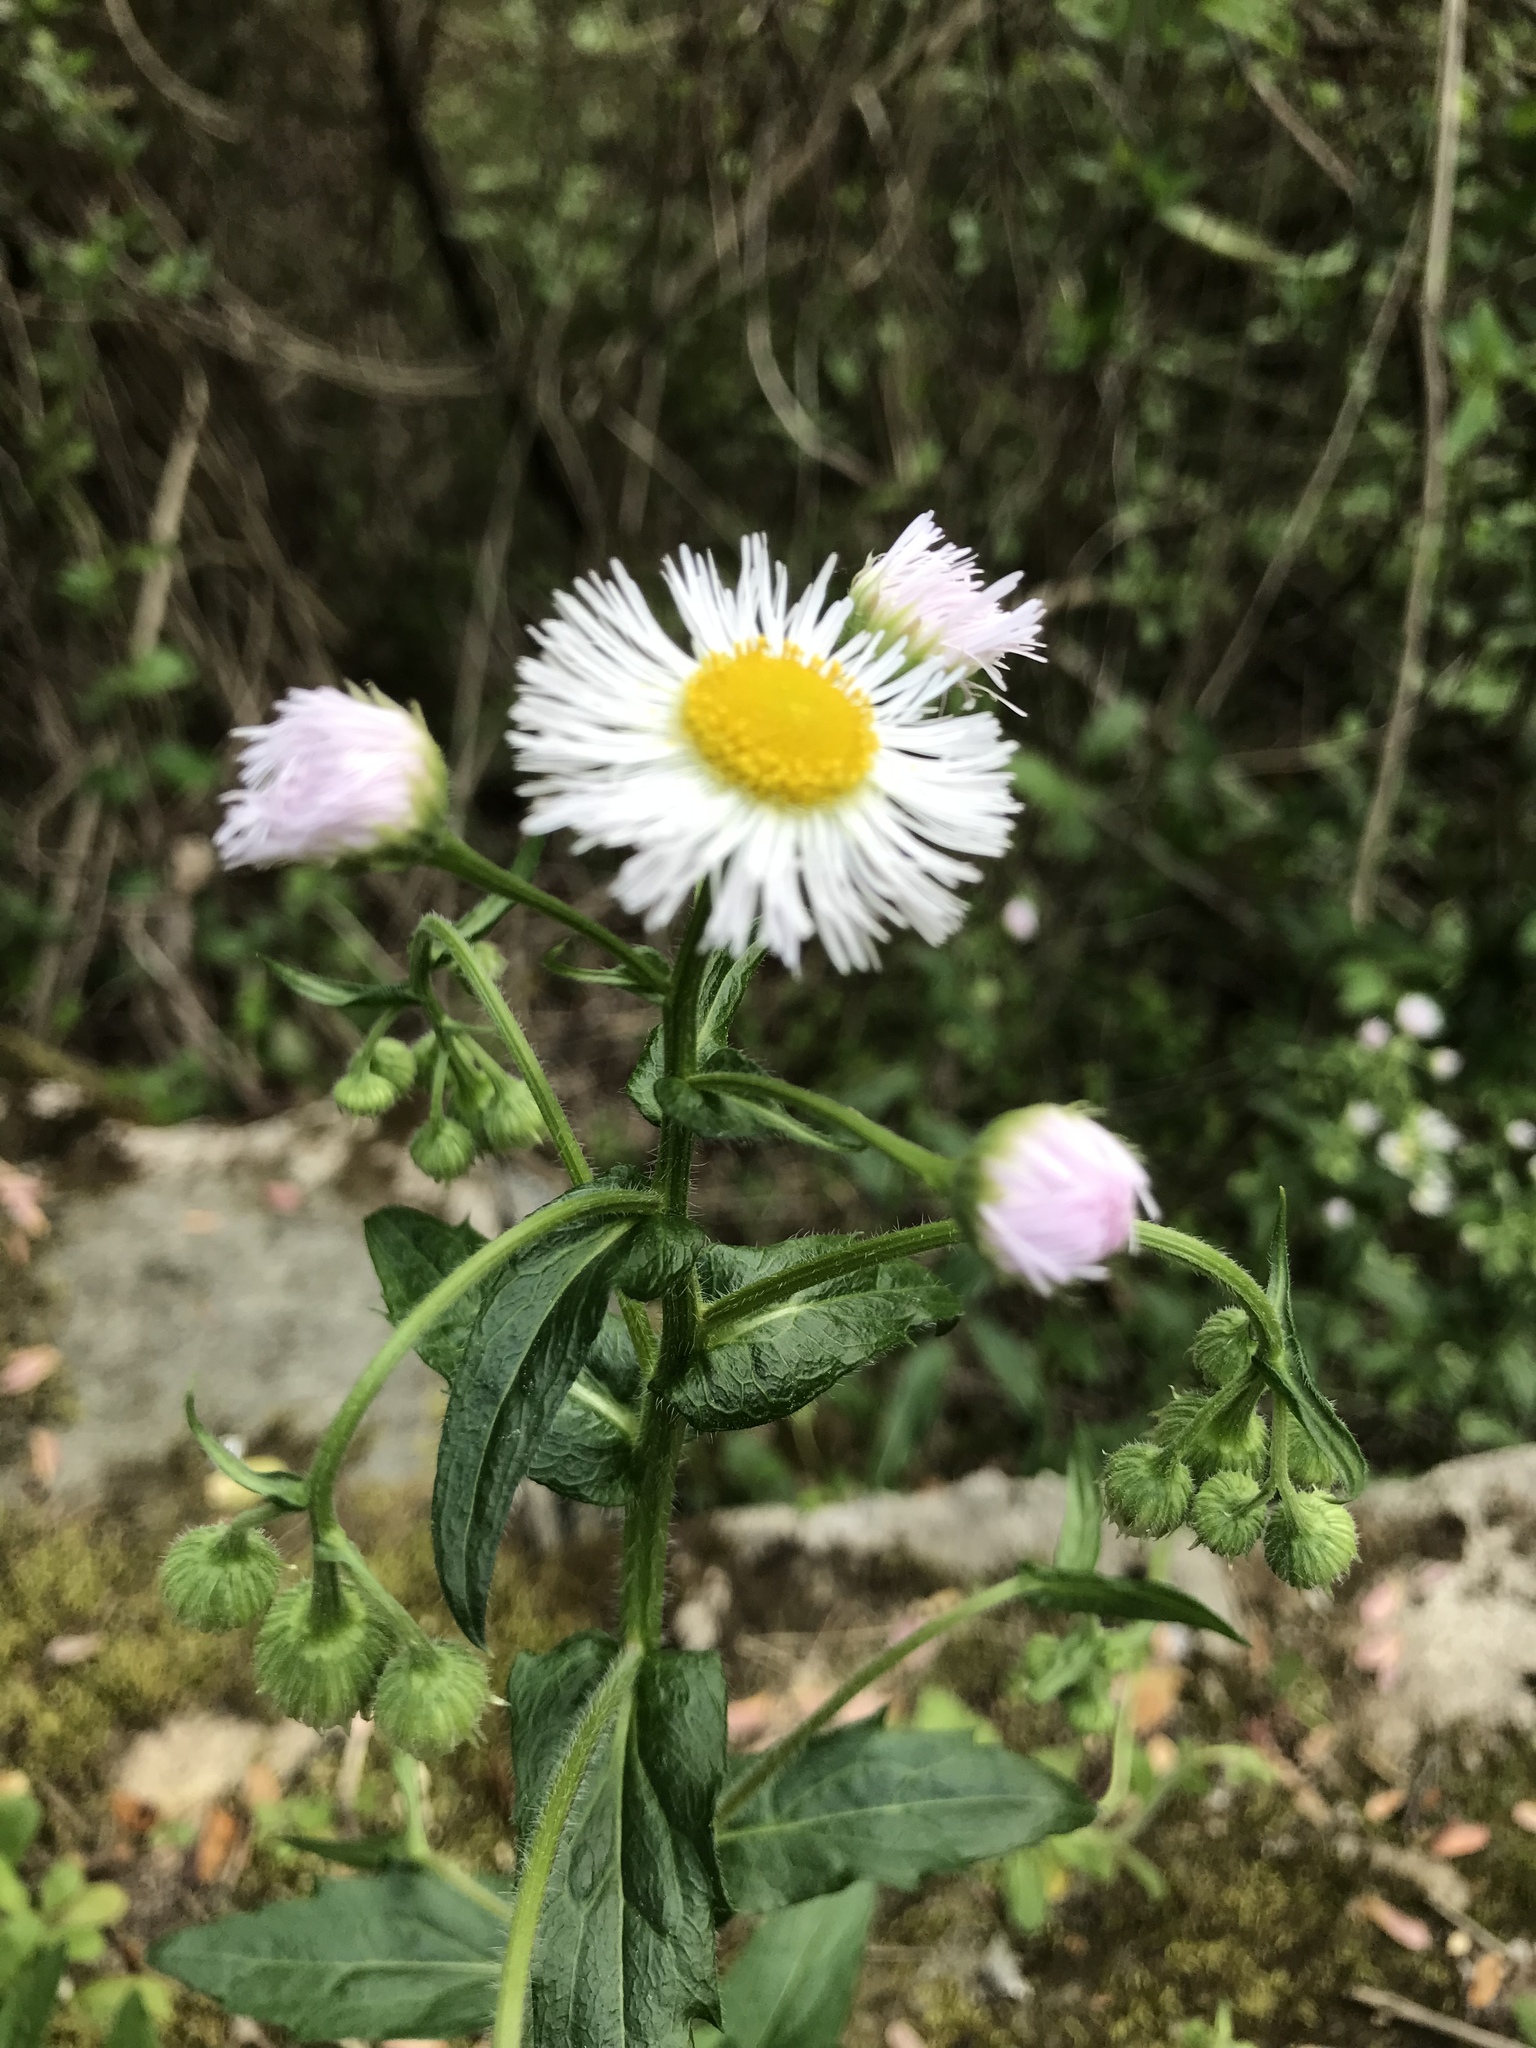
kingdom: Plantae
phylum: Tracheophyta
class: Magnoliopsida
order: Asterales
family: Asteraceae
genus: Erigeron
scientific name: Erigeron philadelphicus
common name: Robin's-plantain
